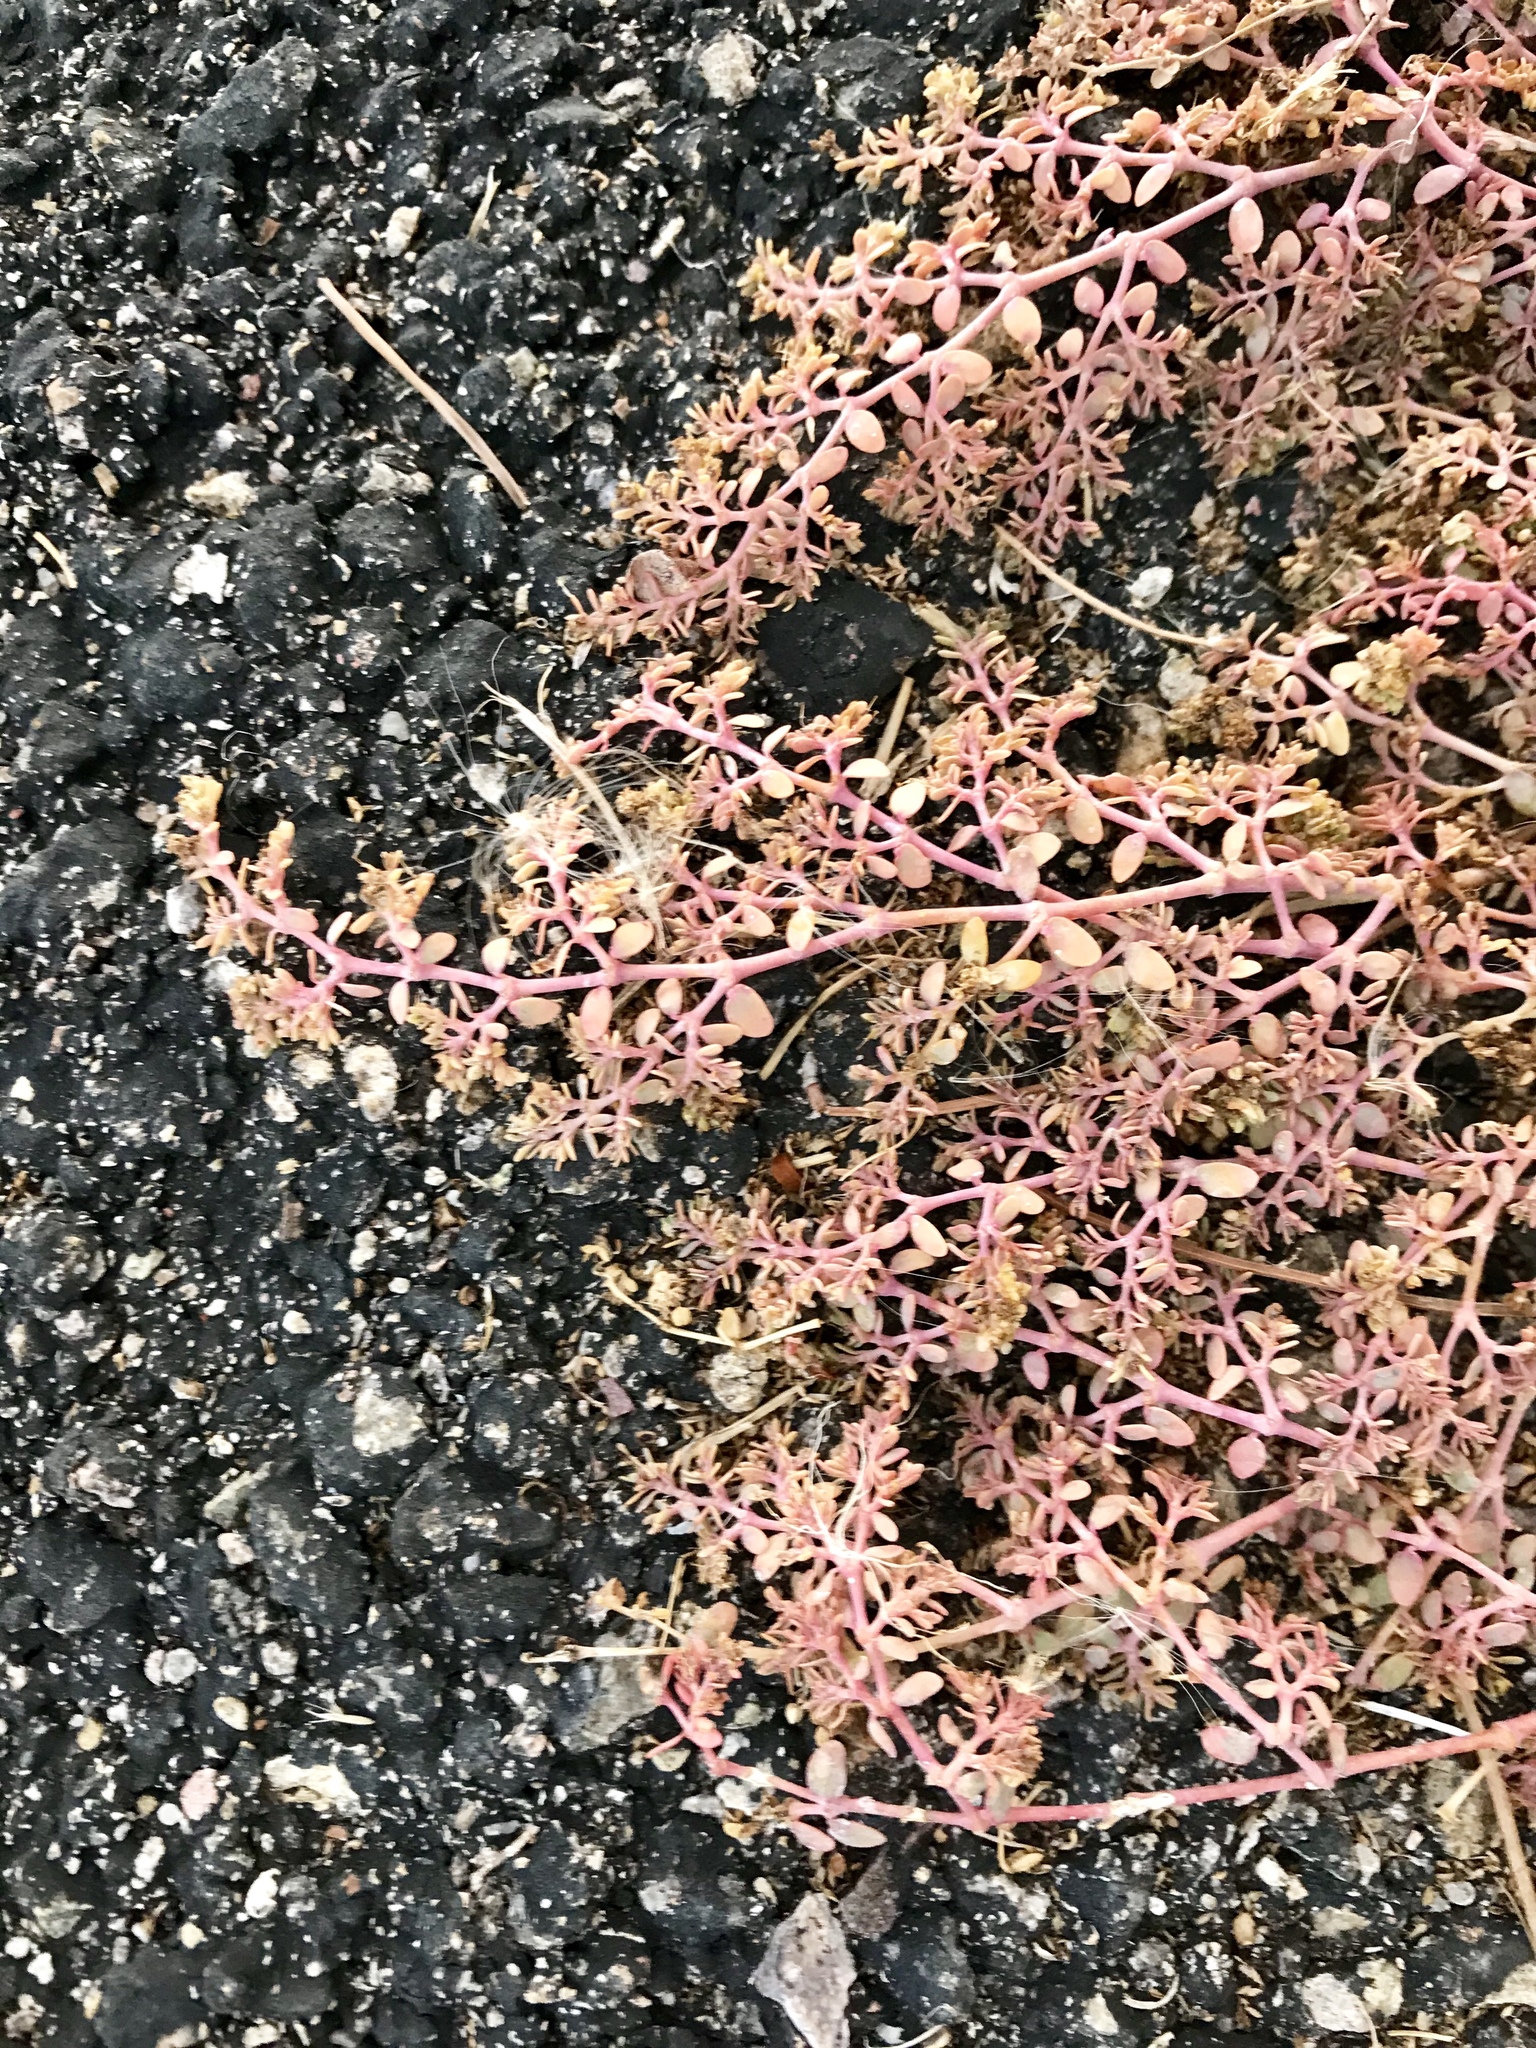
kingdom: Plantae
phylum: Tracheophyta
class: Magnoliopsida
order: Malpighiales
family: Euphorbiaceae
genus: Euphorbia
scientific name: Euphorbia micromera
